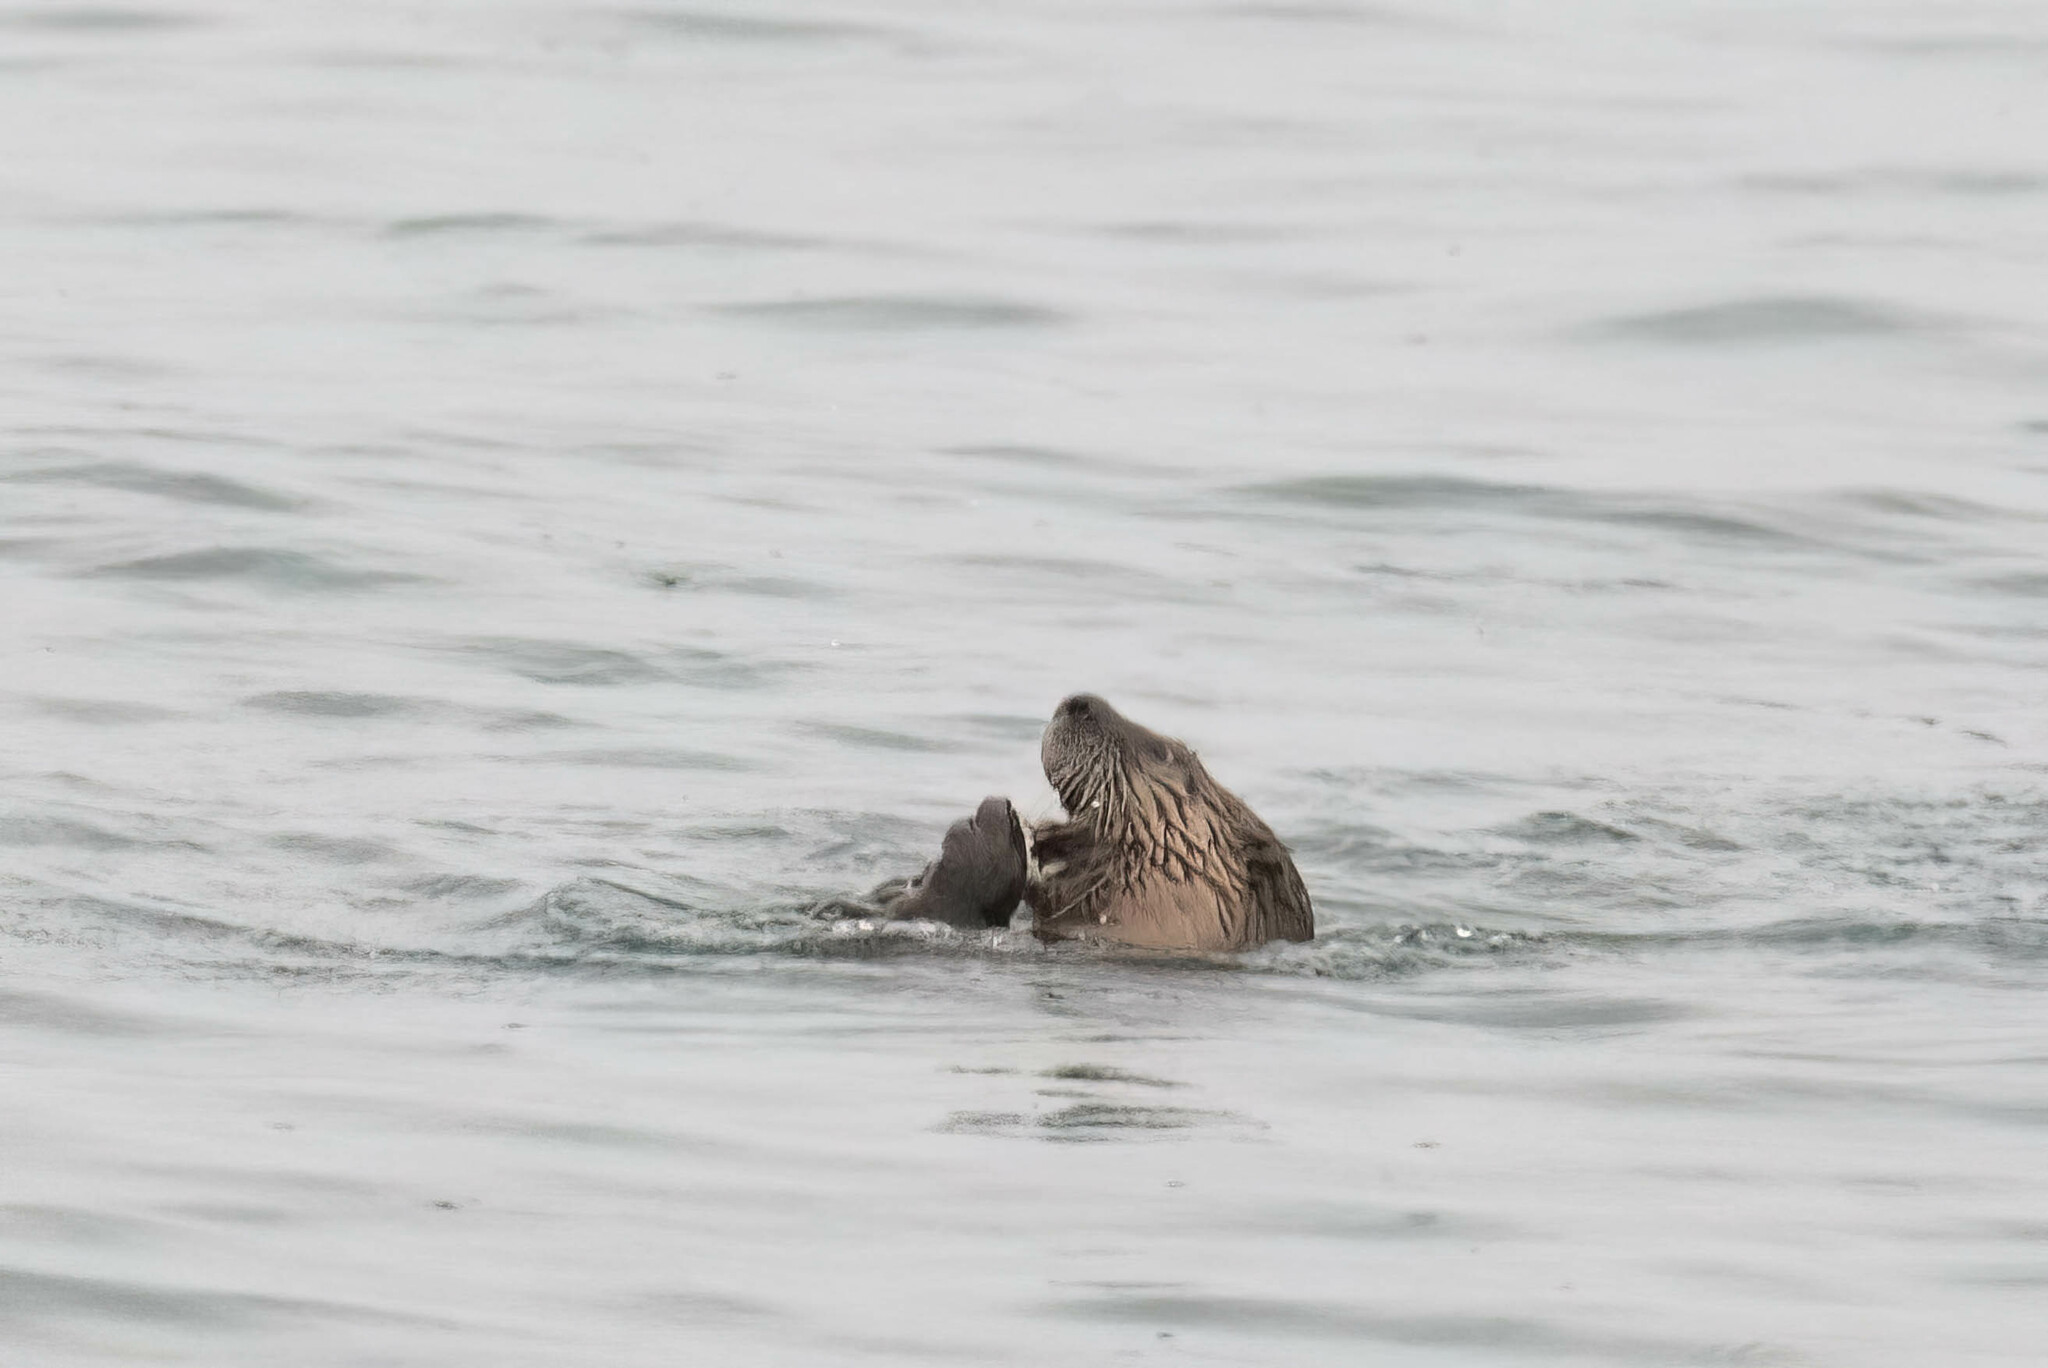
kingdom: Animalia
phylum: Chordata
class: Mammalia
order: Carnivora
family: Mustelidae
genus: Lontra
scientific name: Lontra canadensis
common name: North american river otter
